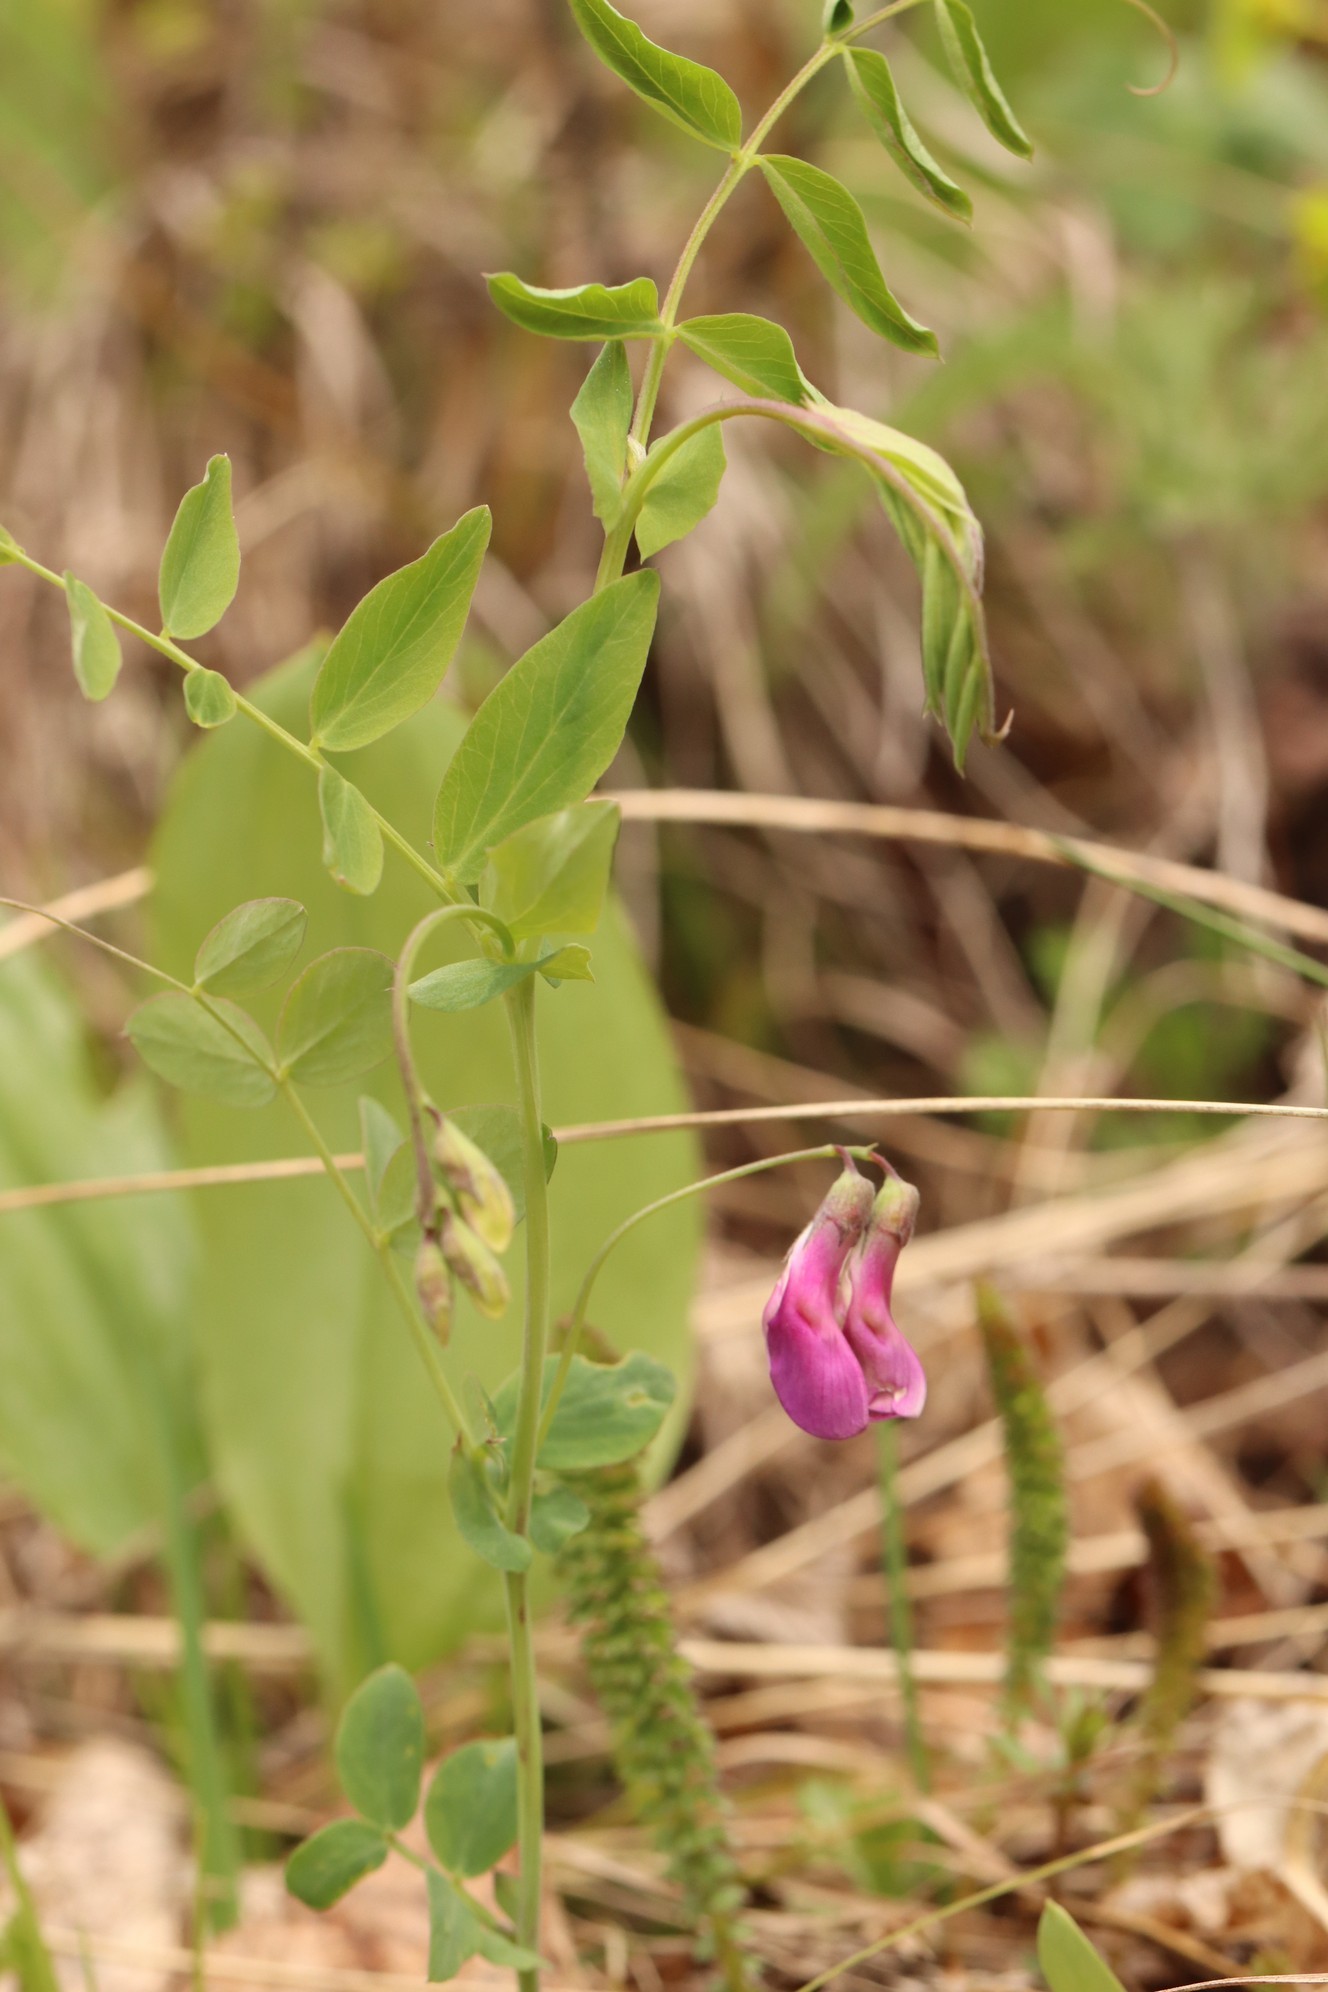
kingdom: Plantae
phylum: Tracheophyta
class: Magnoliopsida
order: Fabales
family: Fabaceae
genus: Lathyrus
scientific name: Lathyrus humilis
